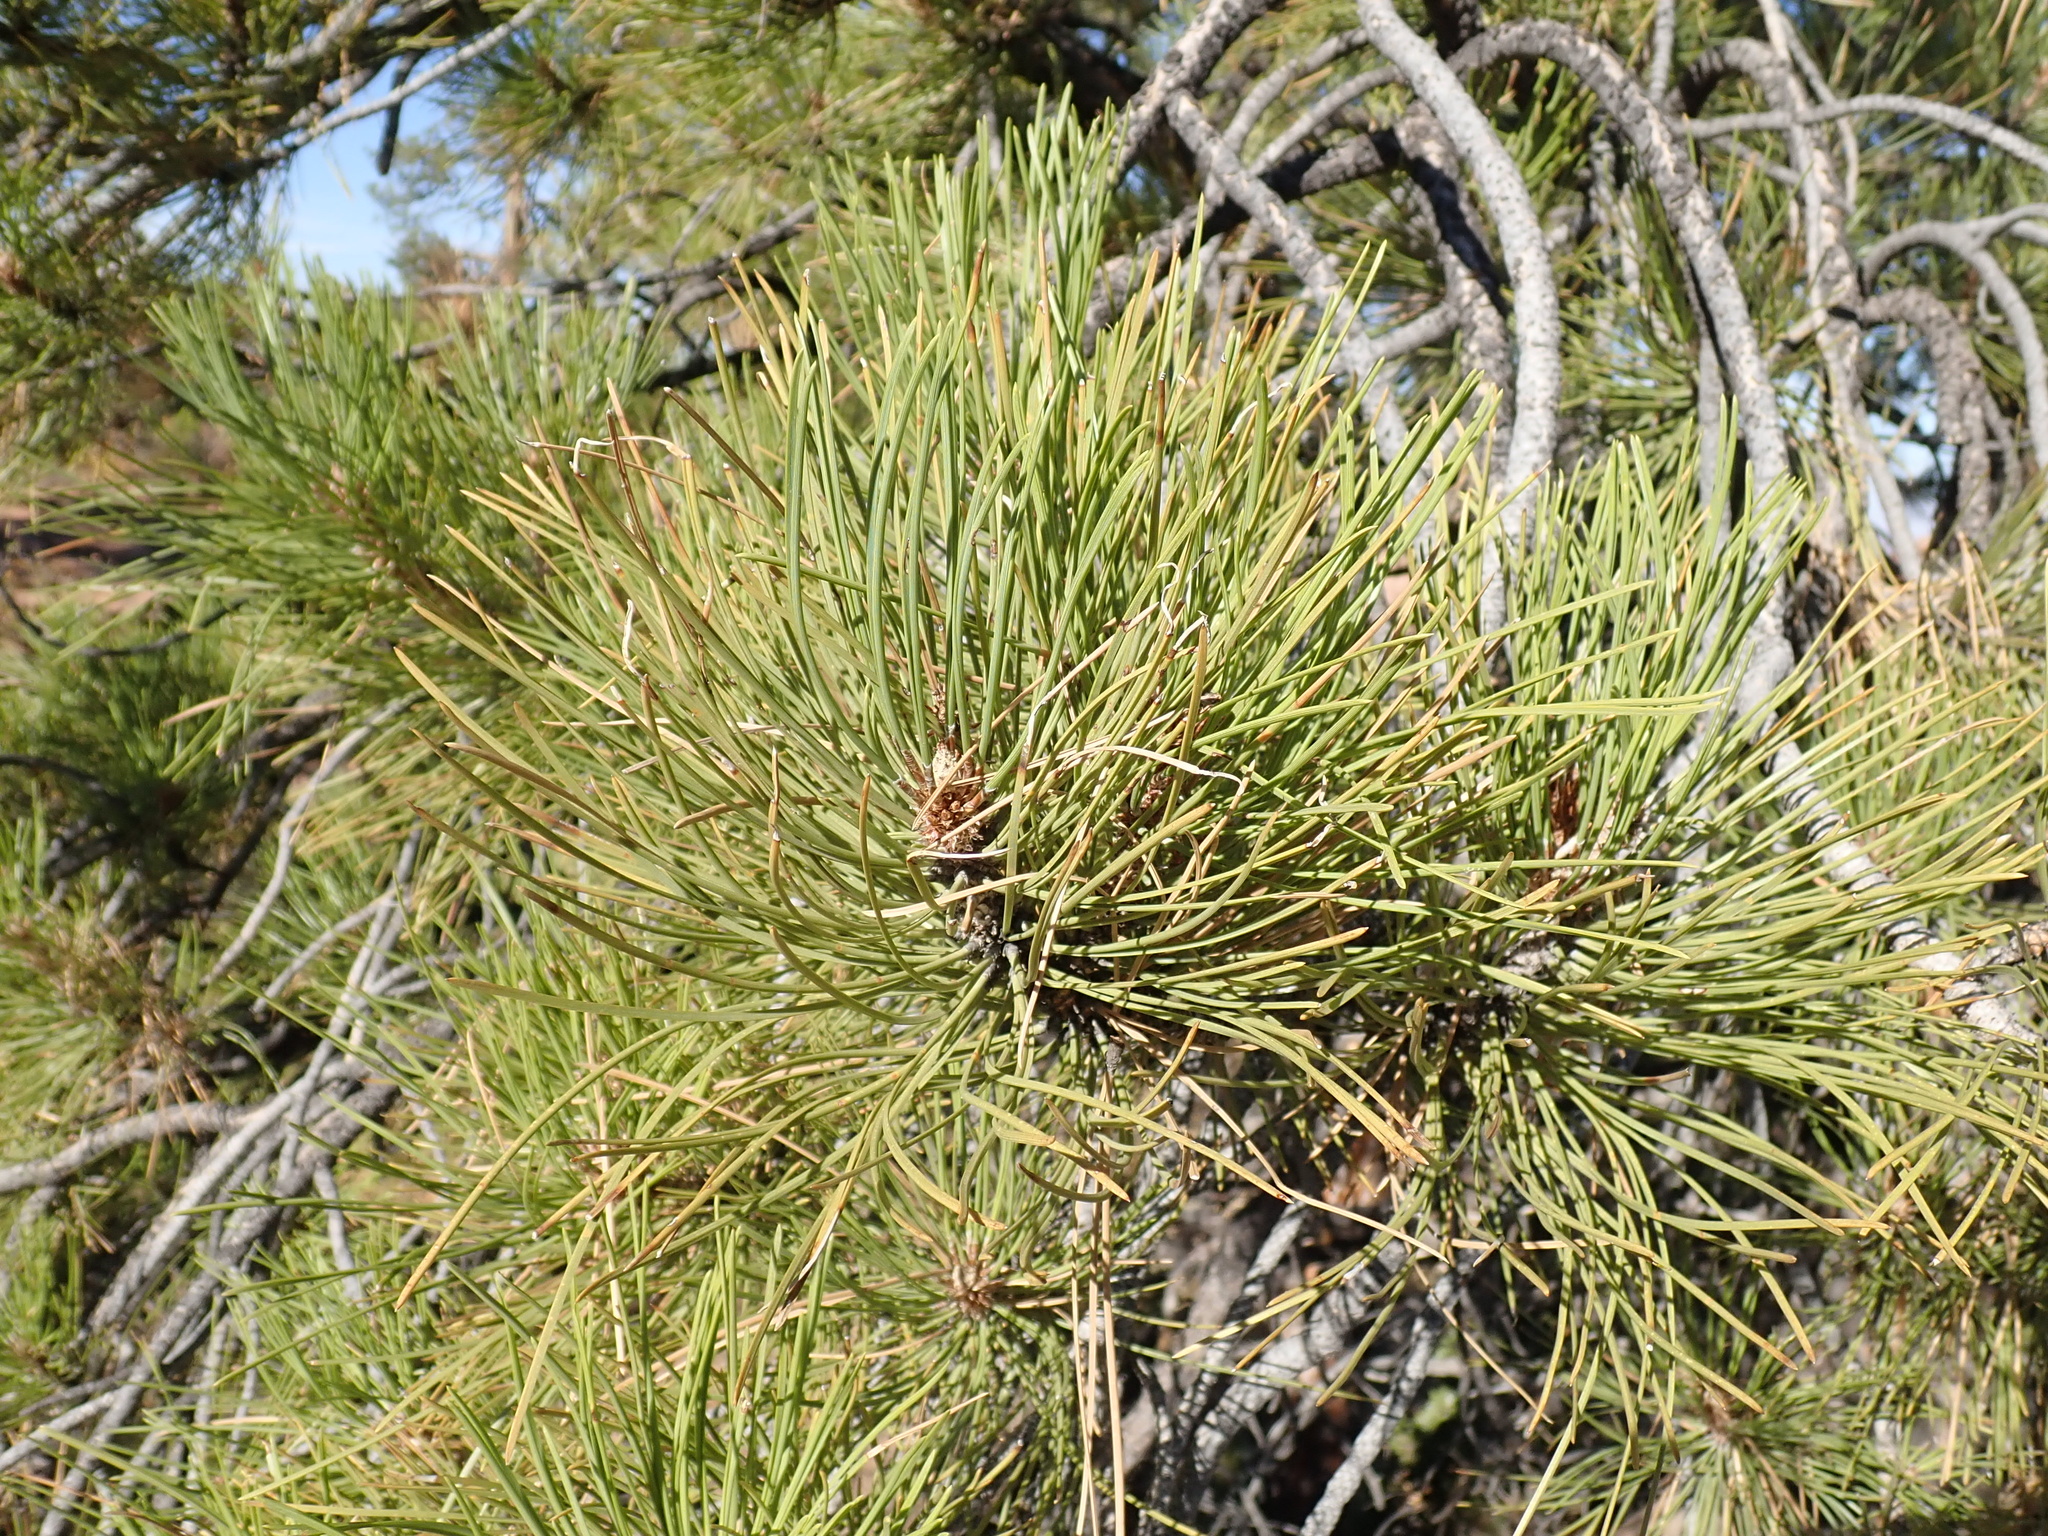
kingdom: Plantae
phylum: Tracheophyta
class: Pinopsida
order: Pinales
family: Pinaceae
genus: Pinus
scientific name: Pinus ponderosa
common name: Western yellow-pine
